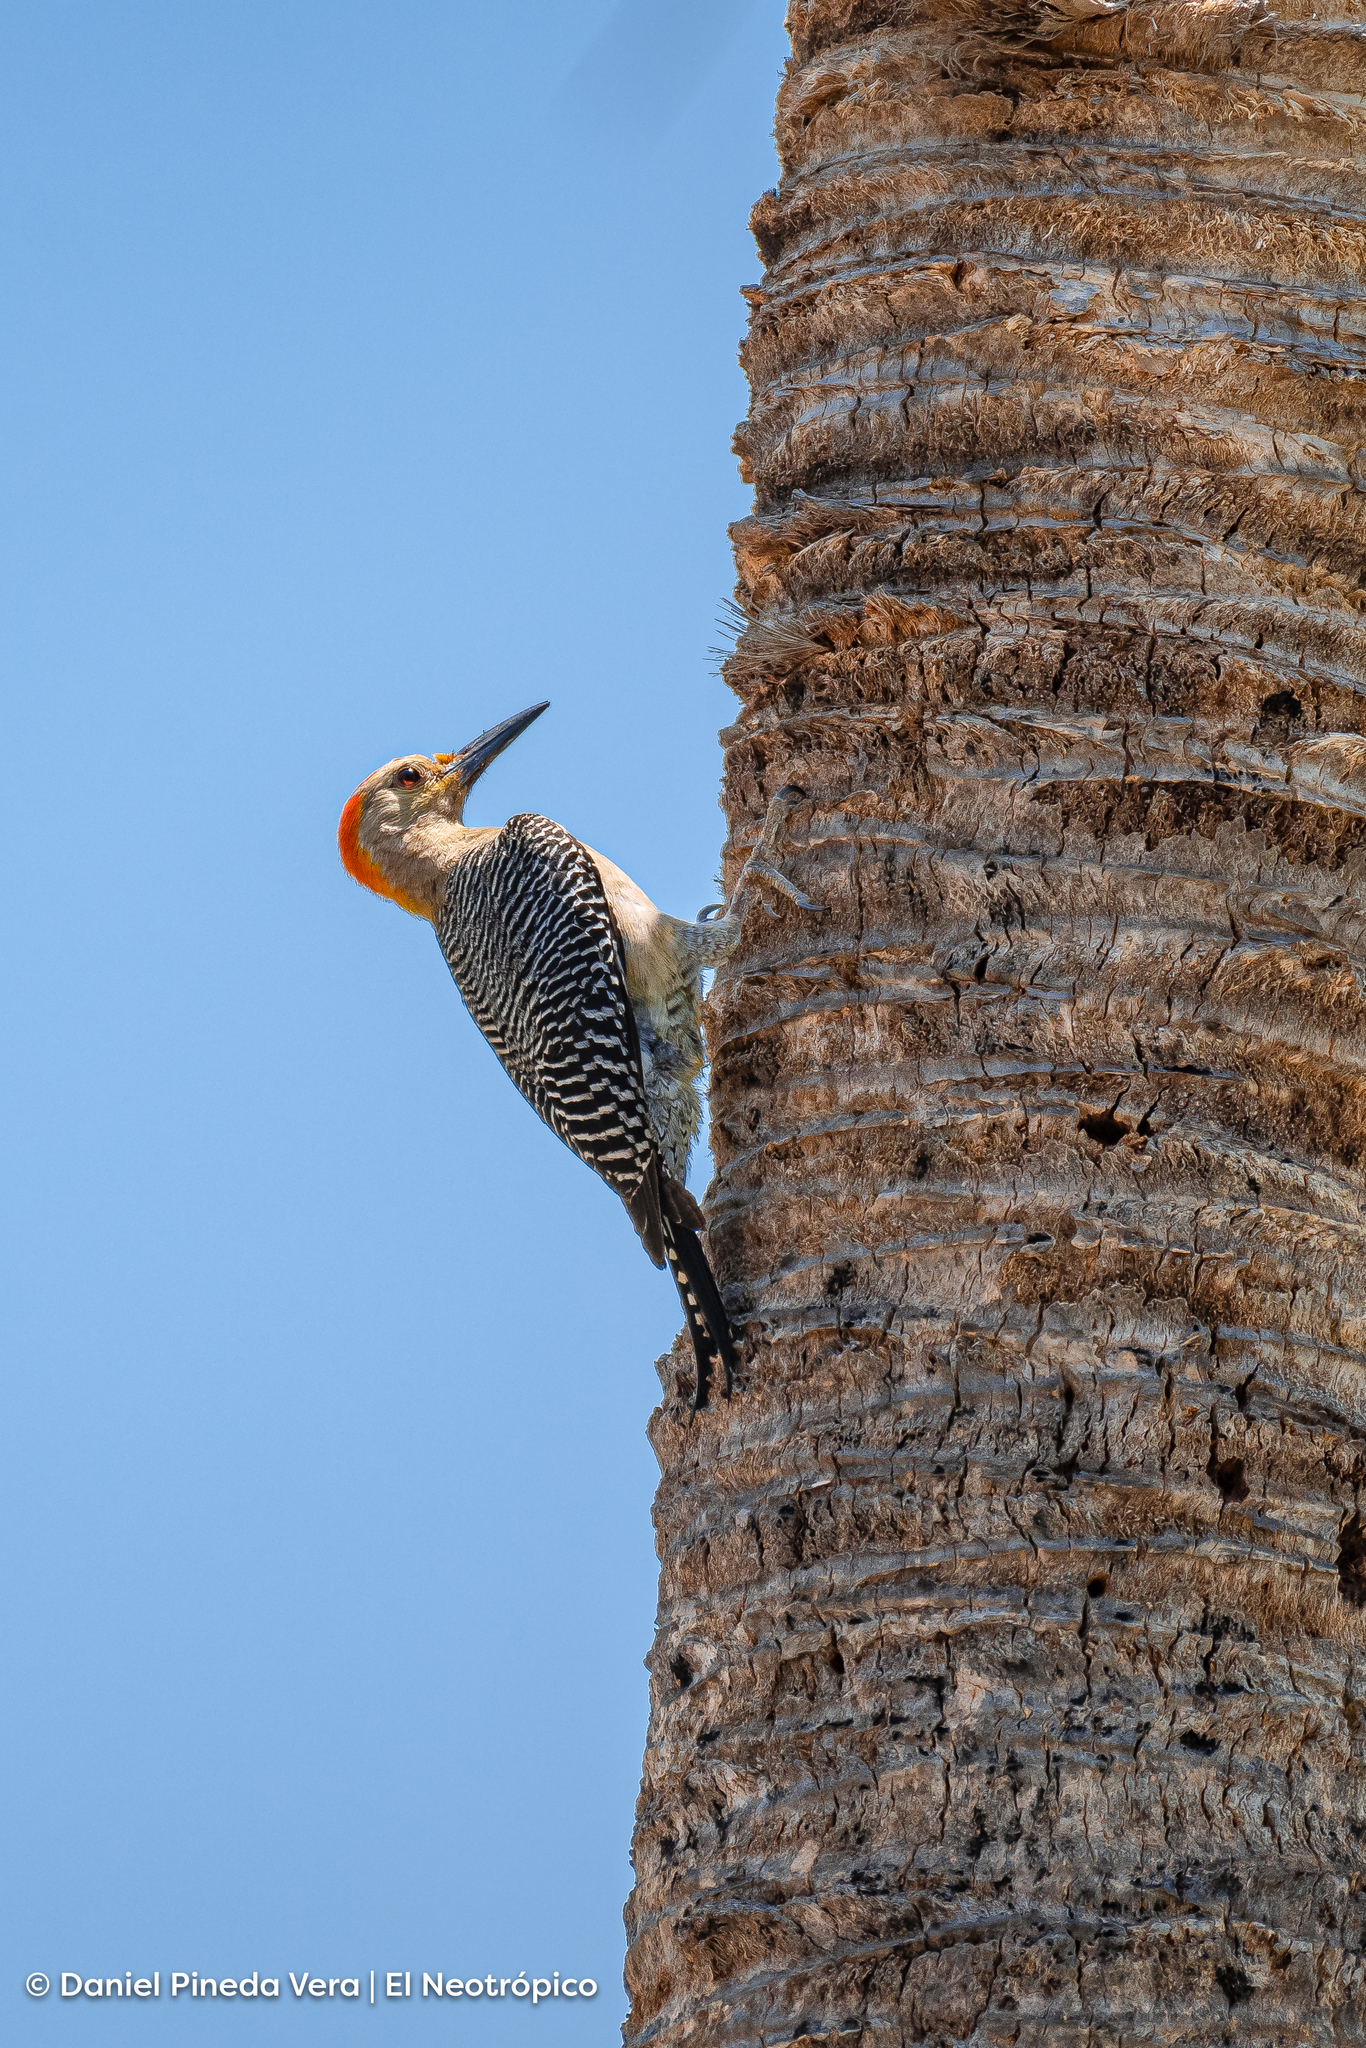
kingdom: Animalia
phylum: Chordata
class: Aves
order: Piciformes
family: Picidae
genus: Melanerpes
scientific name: Melanerpes aurifrons
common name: Golden-fronted woodpecker
